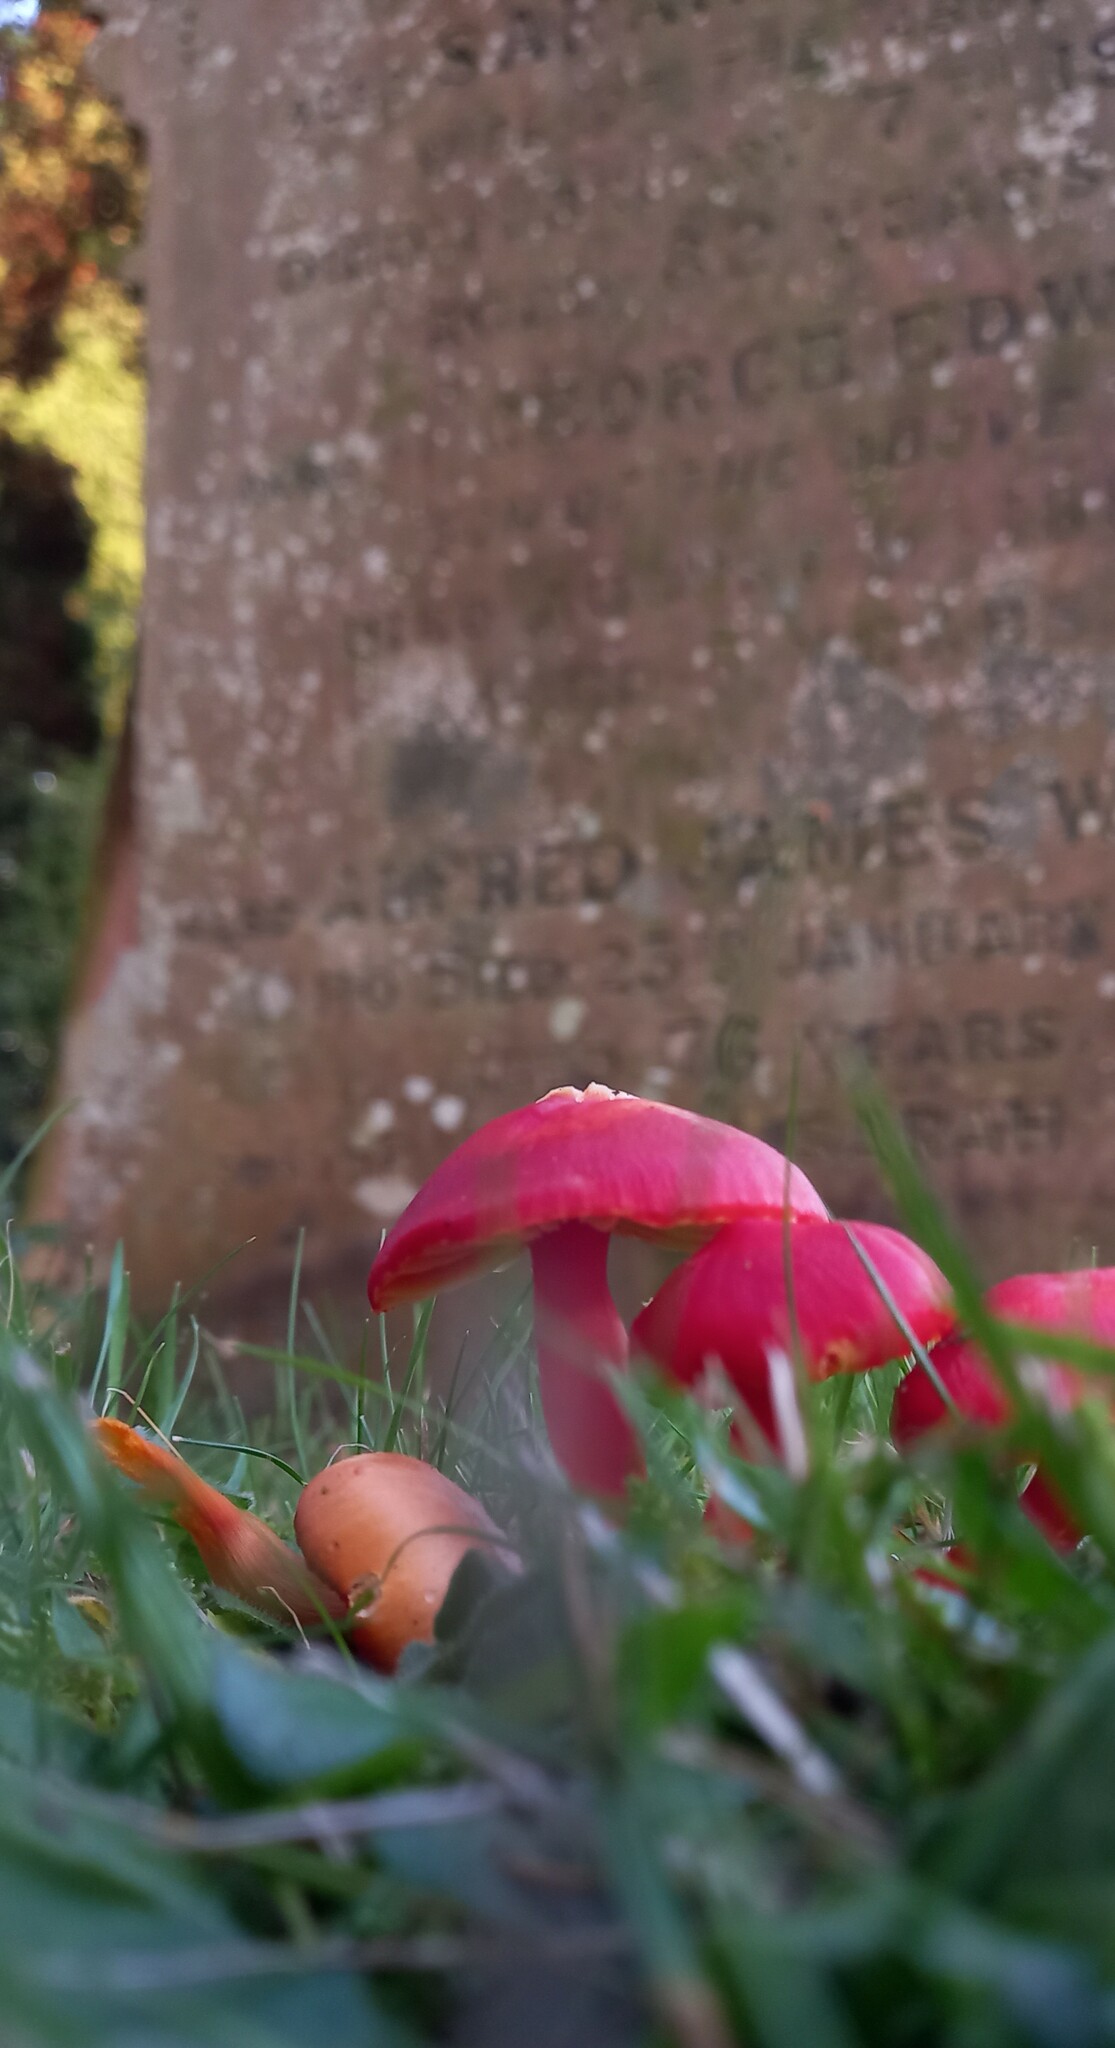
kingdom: Fungi
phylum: Basidiomycota
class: Agaricomycetes
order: Agaricales
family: Hygrophoraceae
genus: Hygrocybe
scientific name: Hygrocybe coccinea
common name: Scarlet hood
